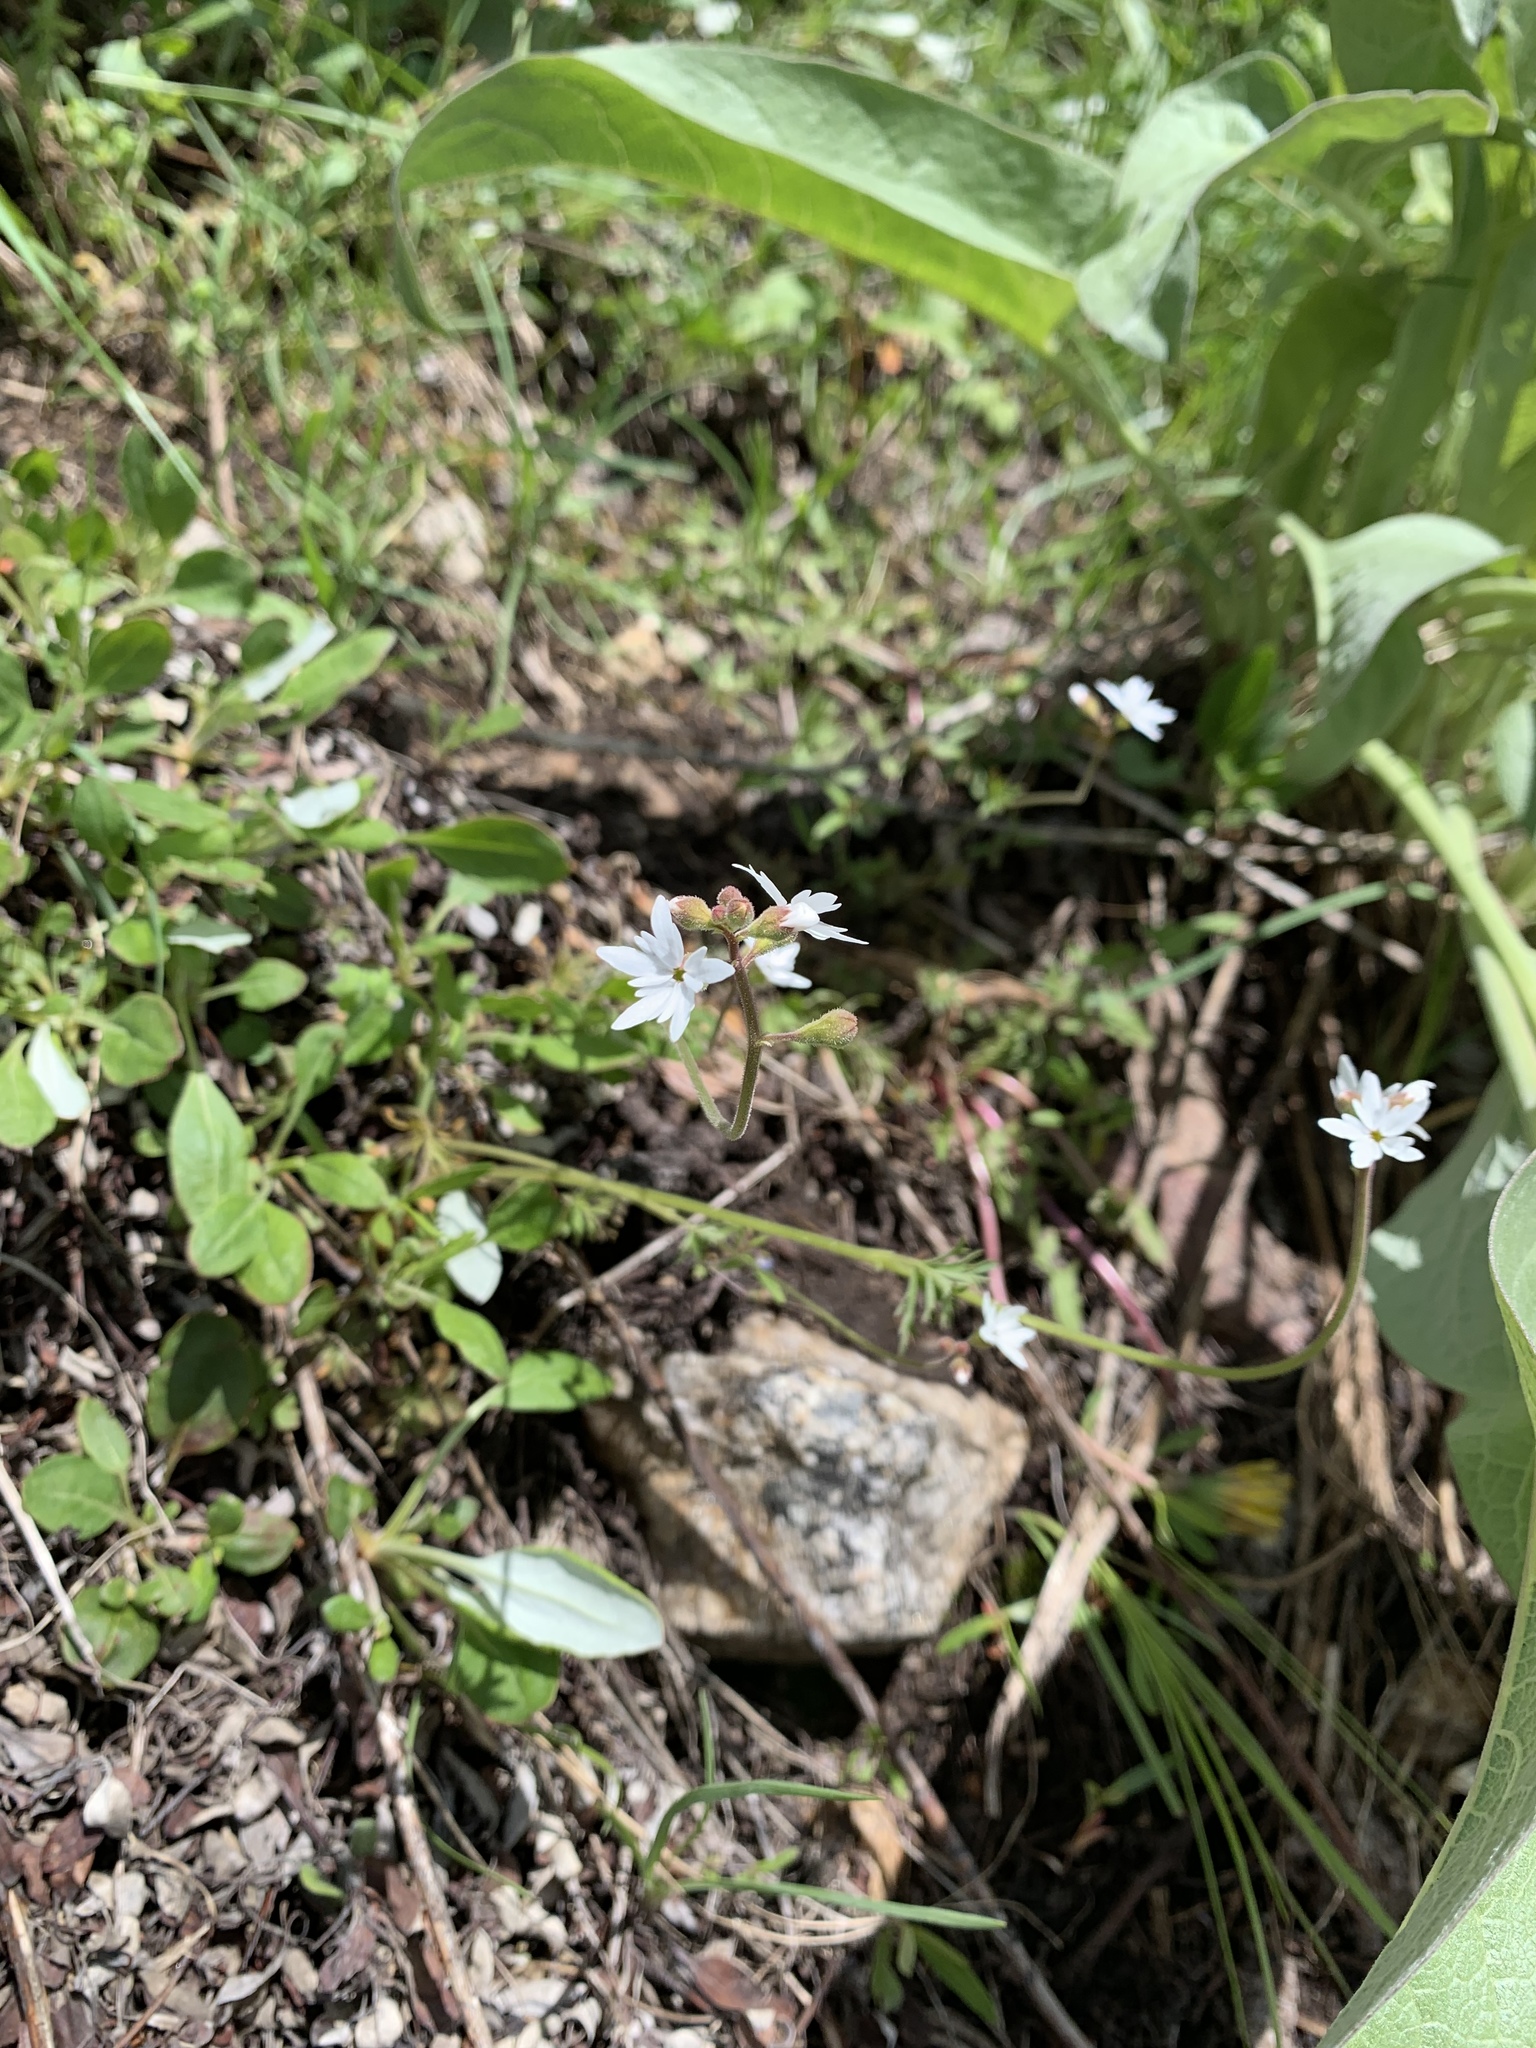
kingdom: Plantae
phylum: Tracheophyta
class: Magnoliopsida
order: Saxifragales
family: Saxifragaceae
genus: Lithophragma
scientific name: Lithophragma parviflorum
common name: Small-flowered fringe-cup
